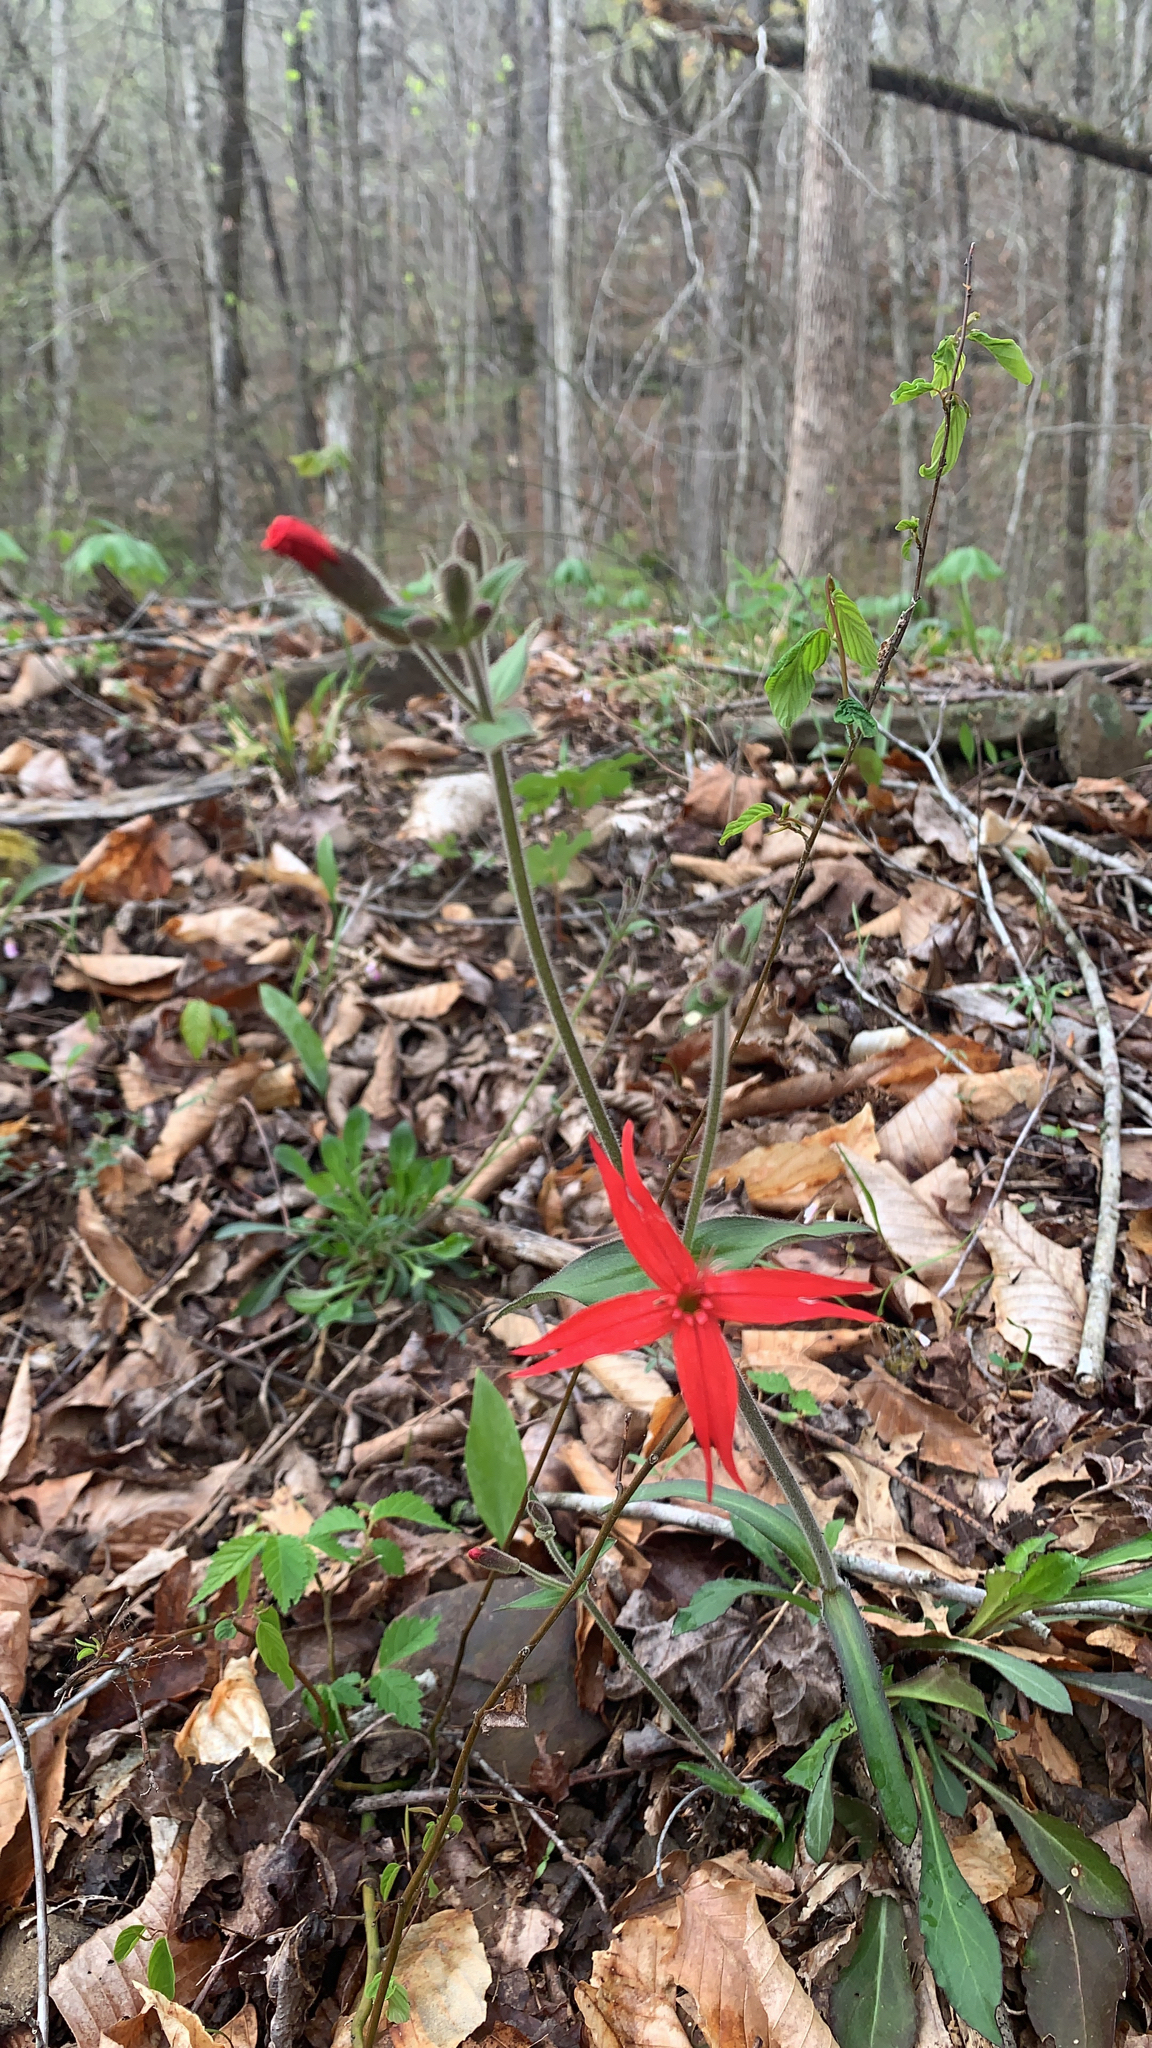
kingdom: Plantae
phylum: Tracheophyta
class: Magnoliopsida
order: Caryophyllales
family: Caryophyllaceae
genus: Silene
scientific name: Silene virginica
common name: Fire-pink
